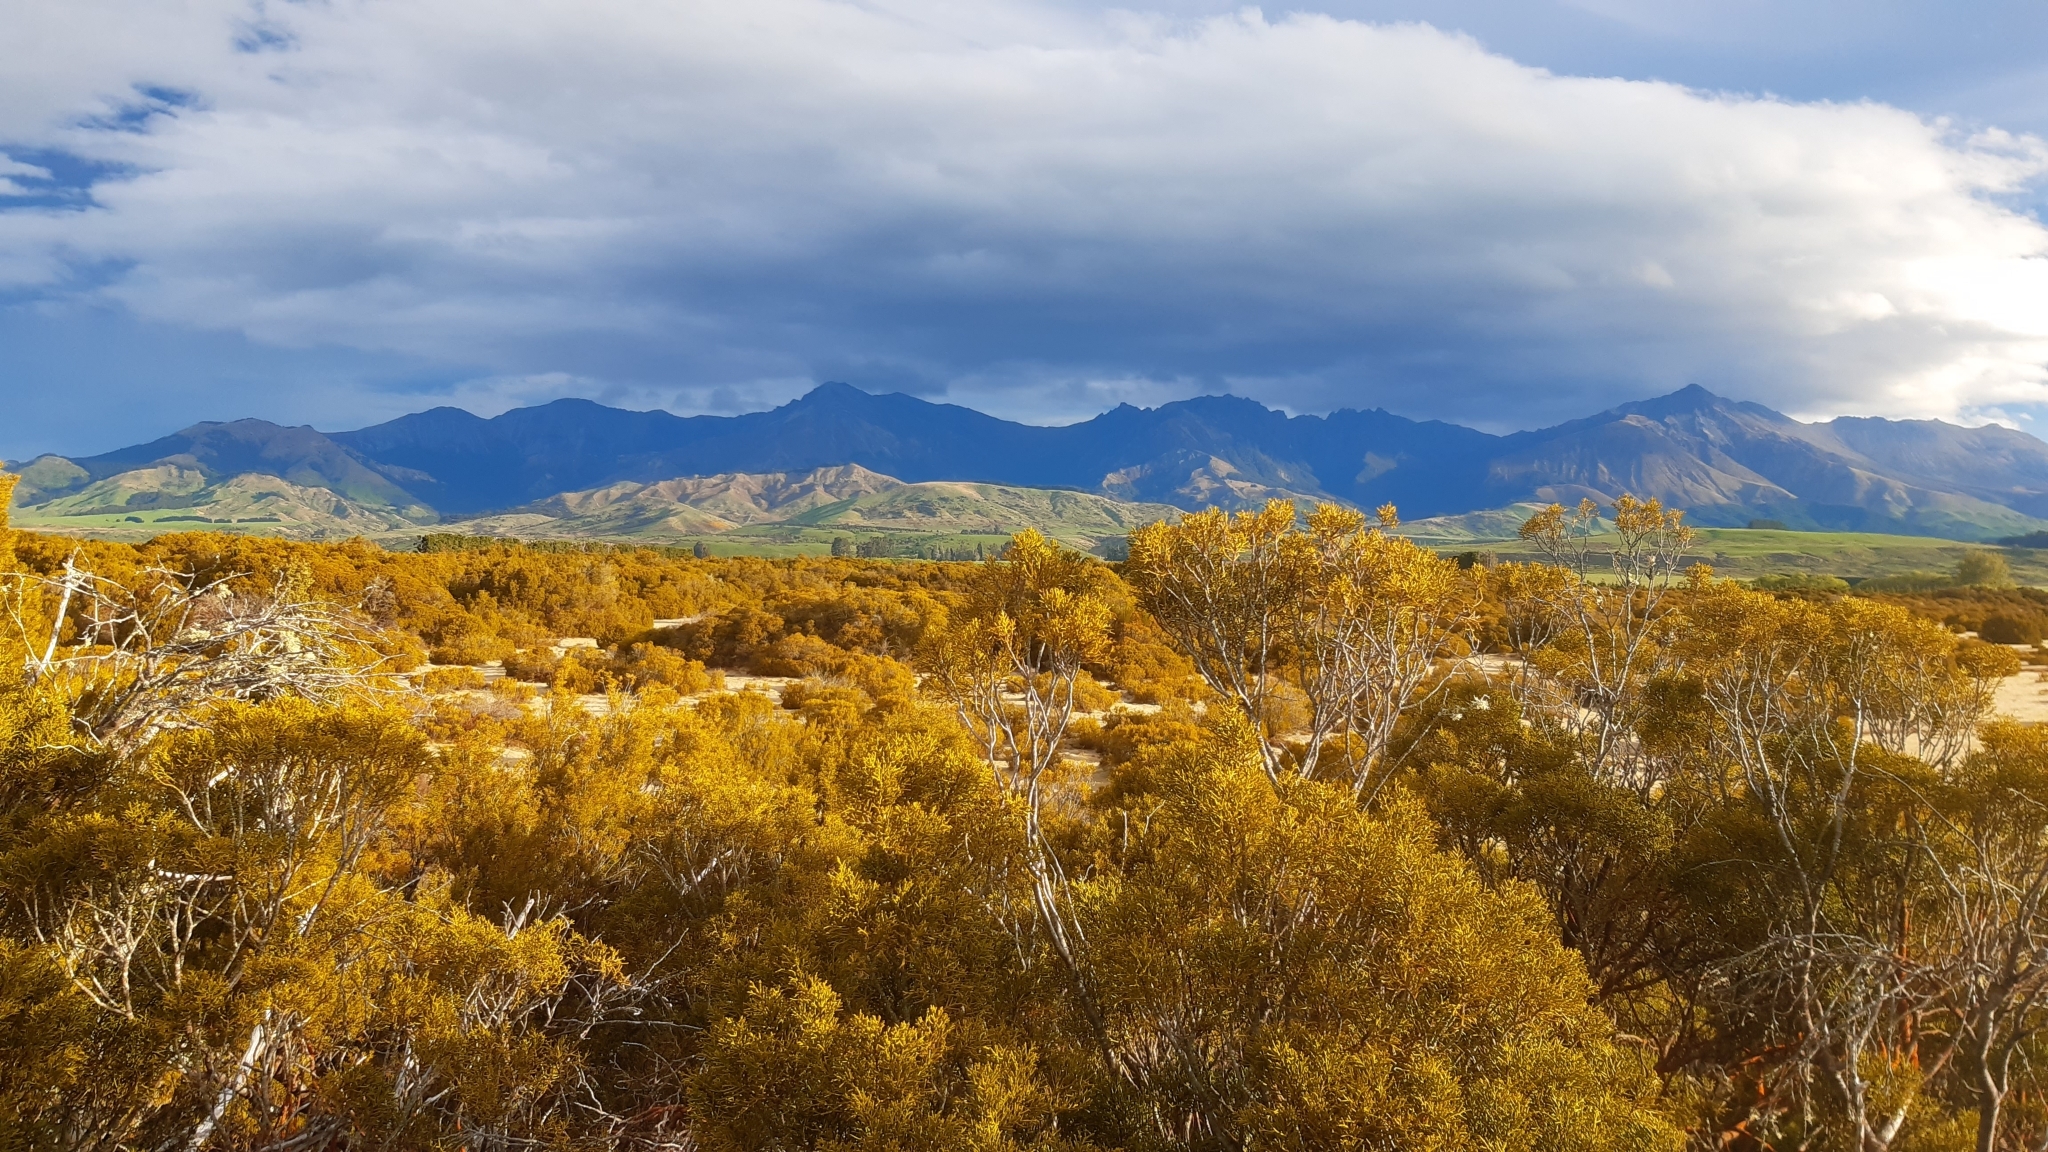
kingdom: Plantae
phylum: Tracheophyta
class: Pinopsida
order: Pinales
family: Podocarpaceae
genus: Halocarpus
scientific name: Halocarpus bidwillii
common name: Bog pine
